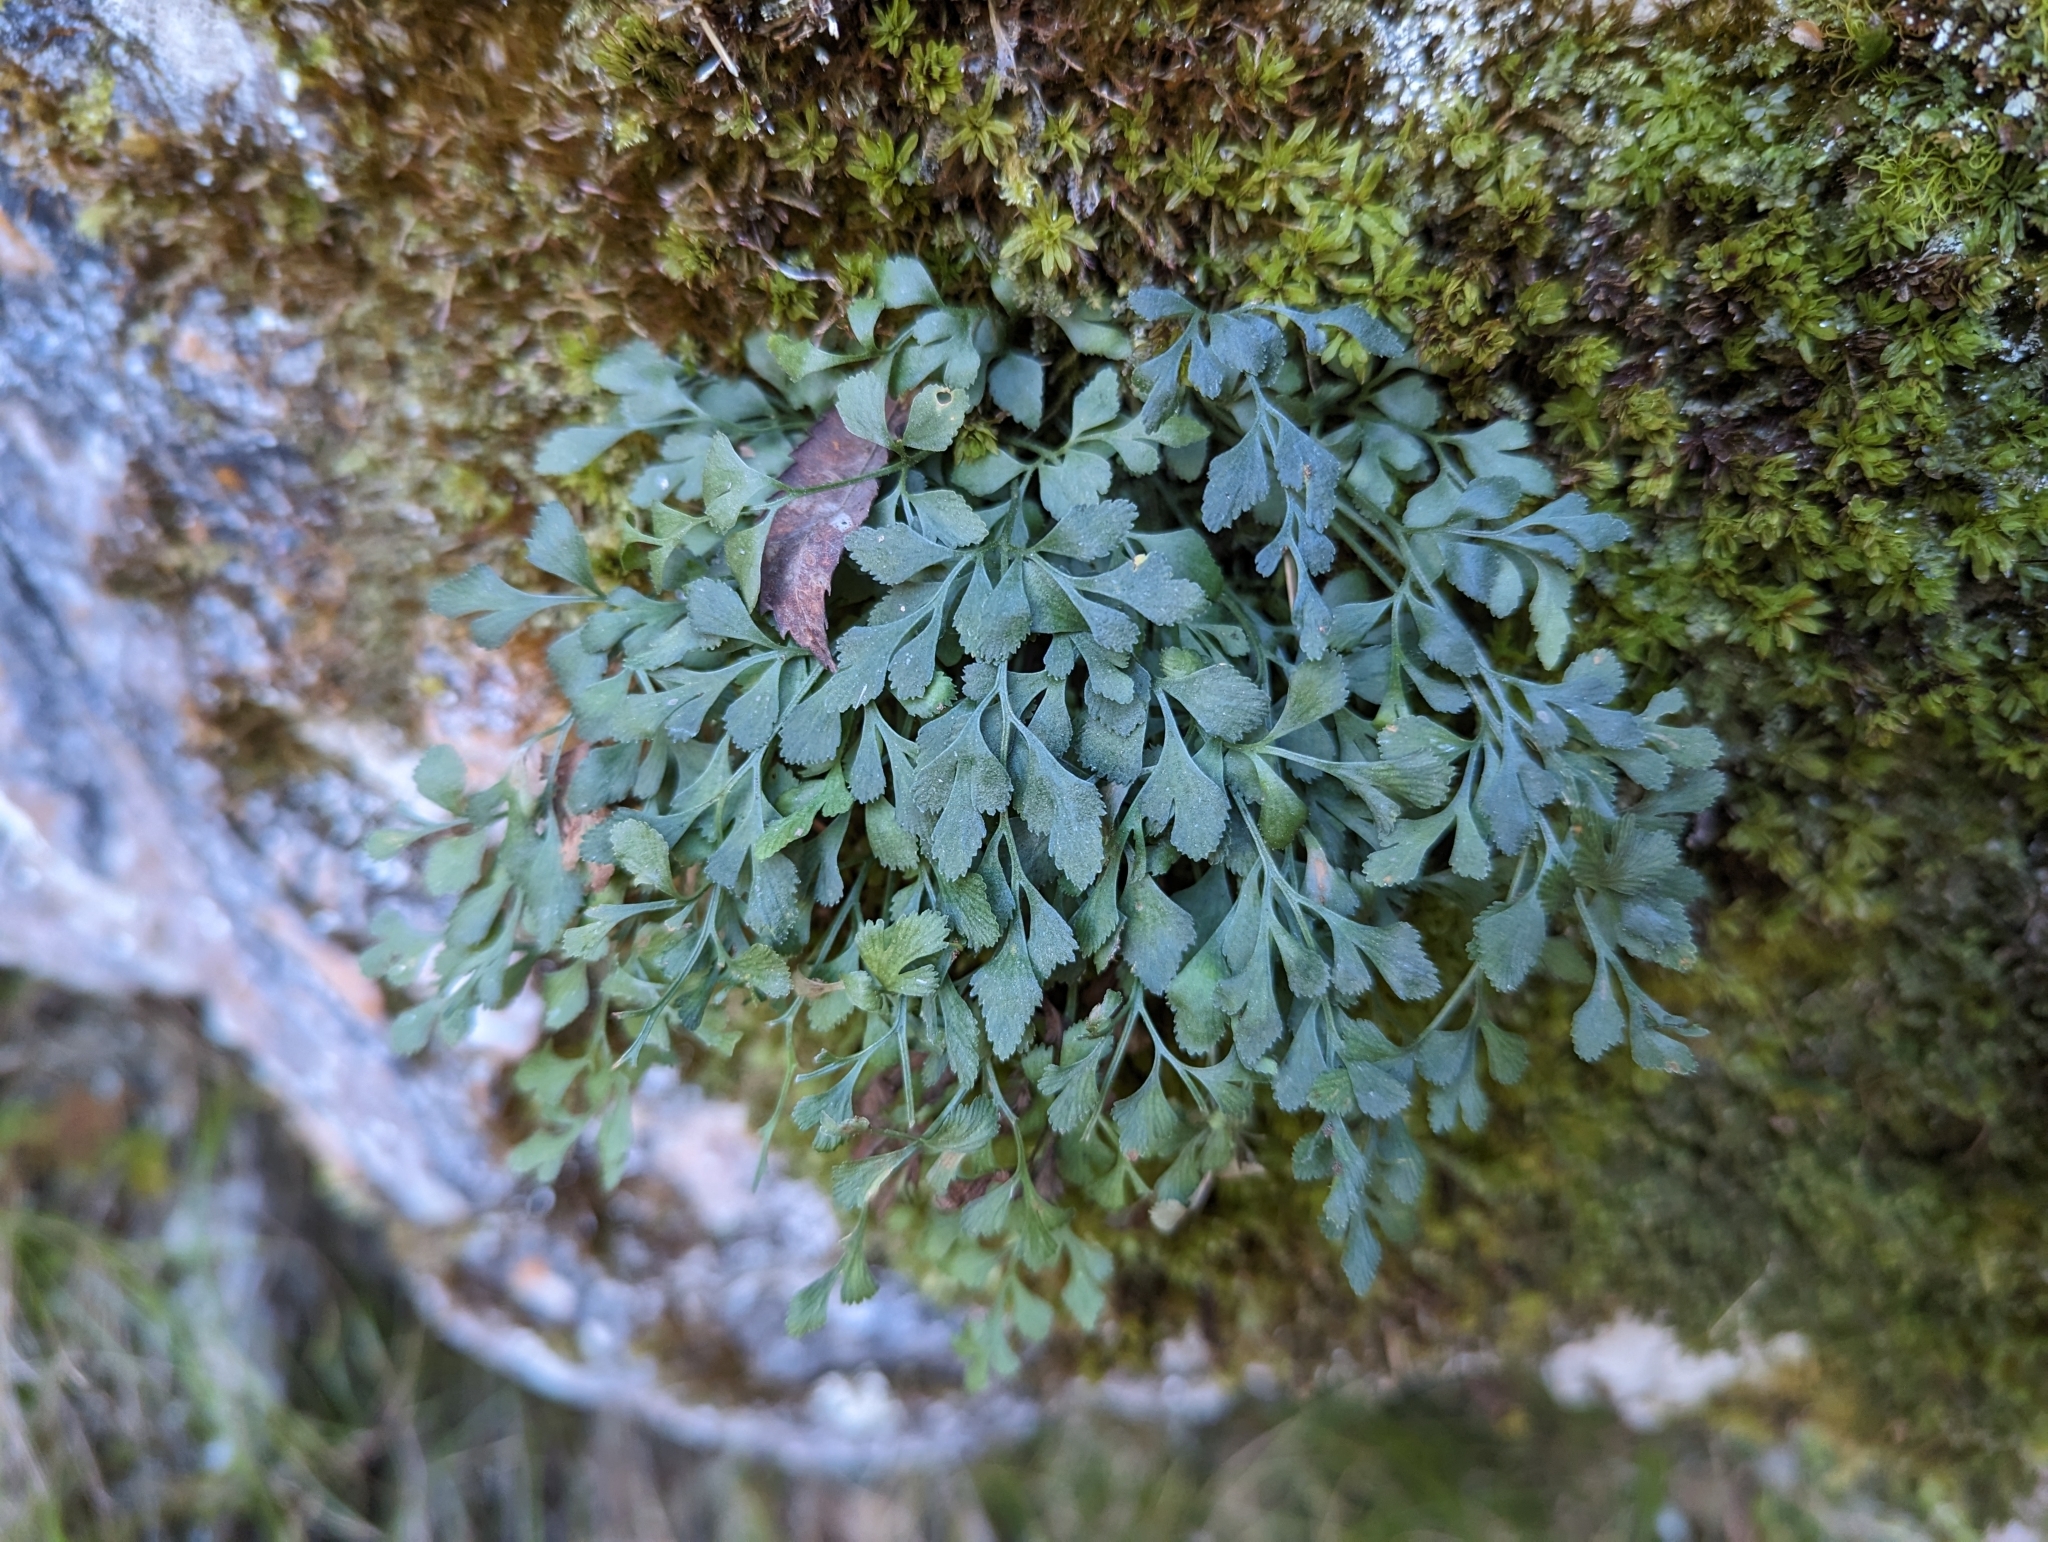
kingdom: Plantae
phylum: Tracheophyta
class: Polypodiopsida
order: Polypodiales
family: Aspleniaceae
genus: Asplenium
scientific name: Asplenium ruta-muraria
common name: Wall-rue
